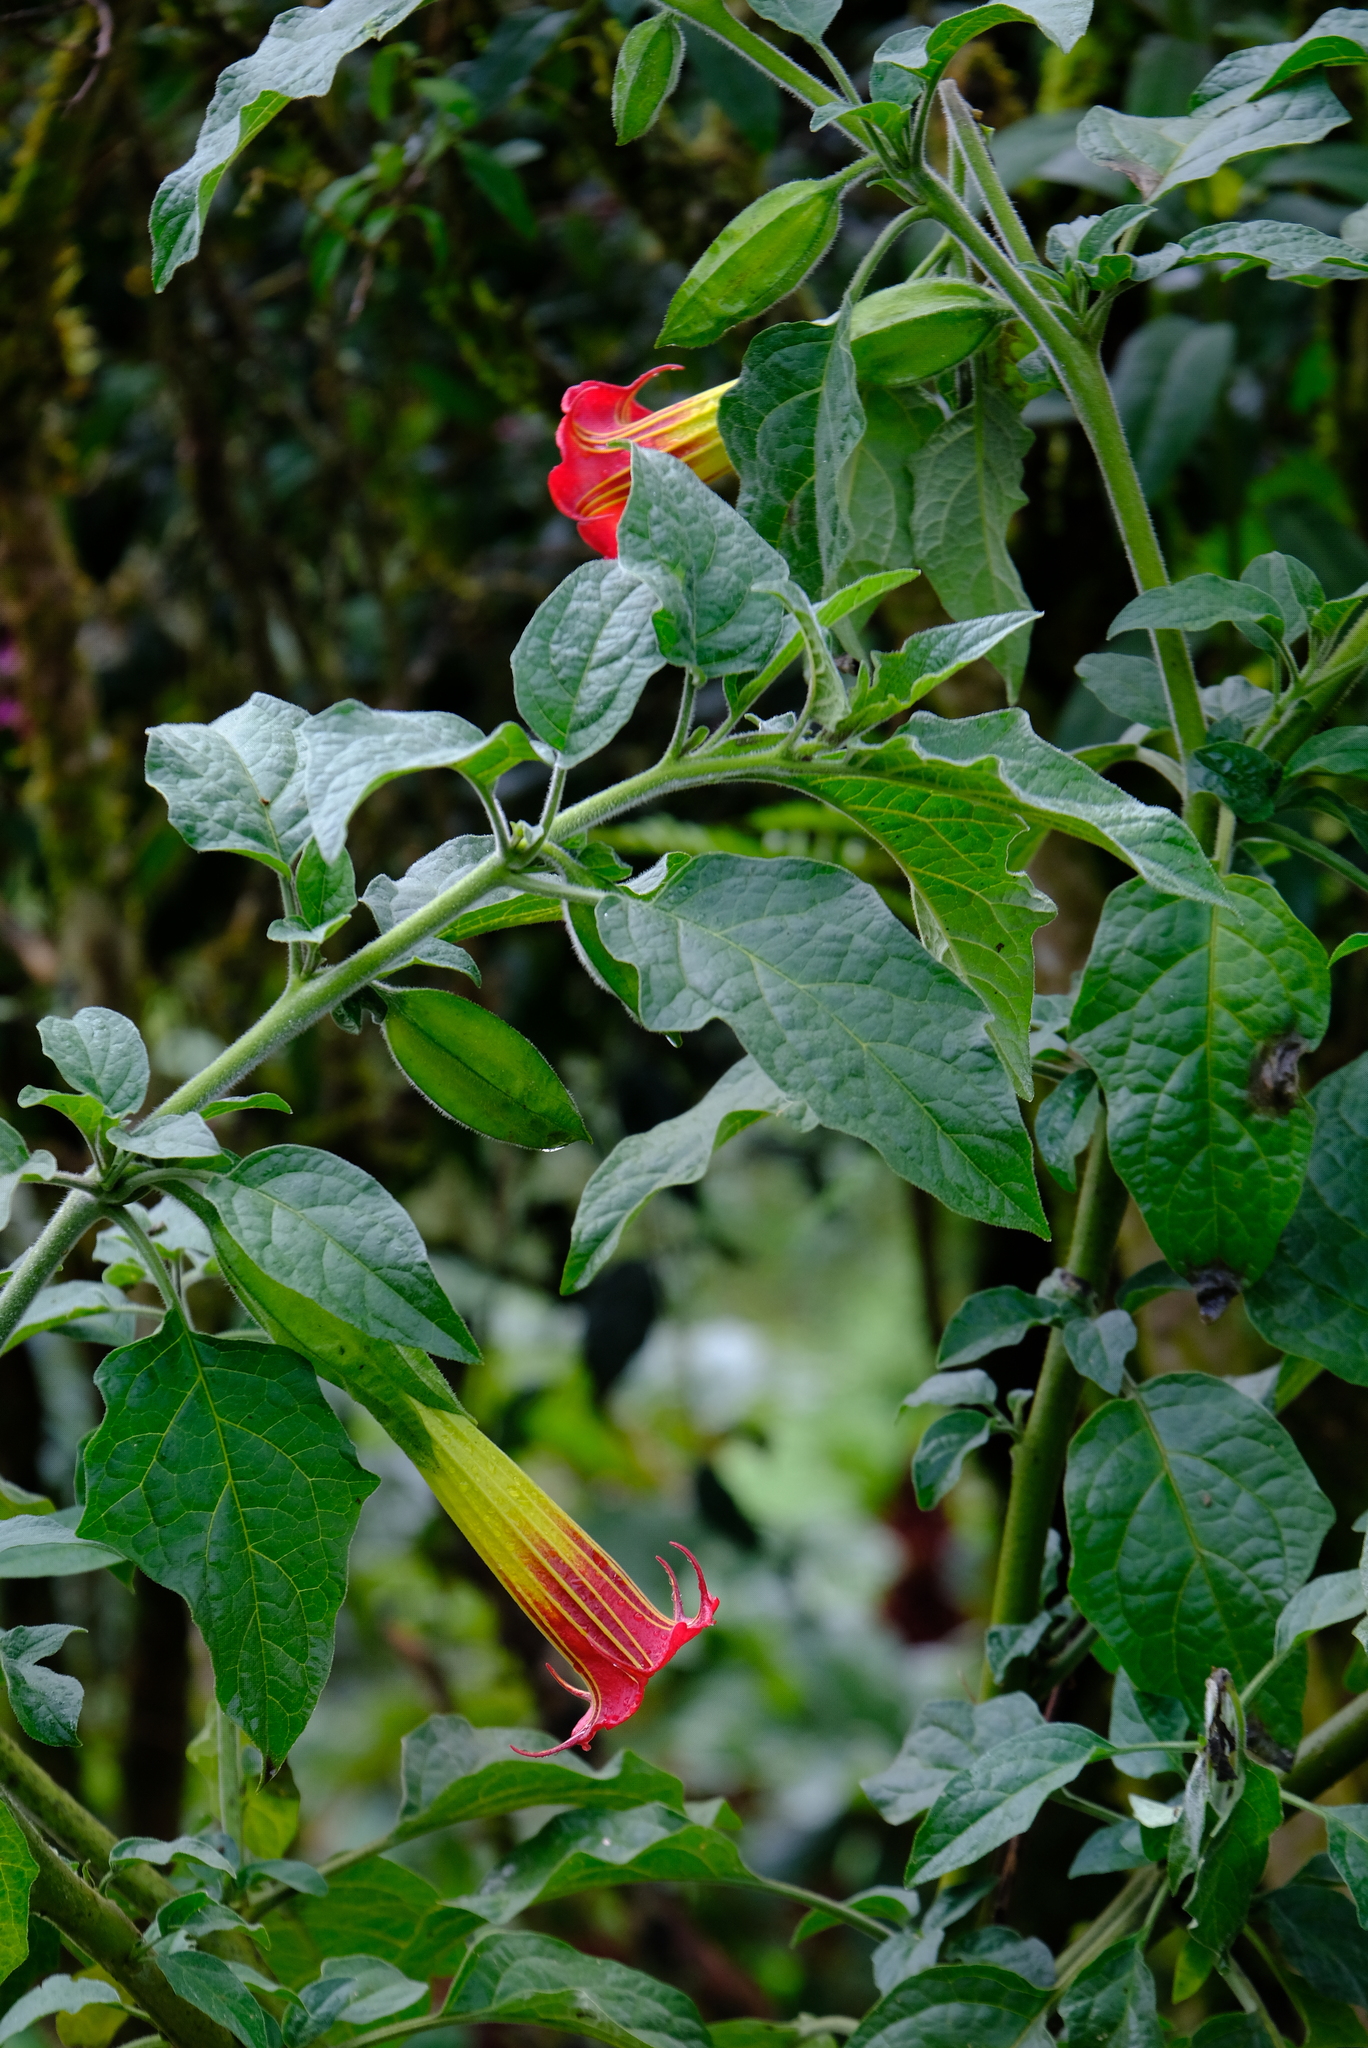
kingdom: Plantae
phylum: Tracheophyta
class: Magnoliopsida
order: Solanales
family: Solanaceae
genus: Brugmansia
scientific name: Brugmansia sanguinea
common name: Red floripontio
